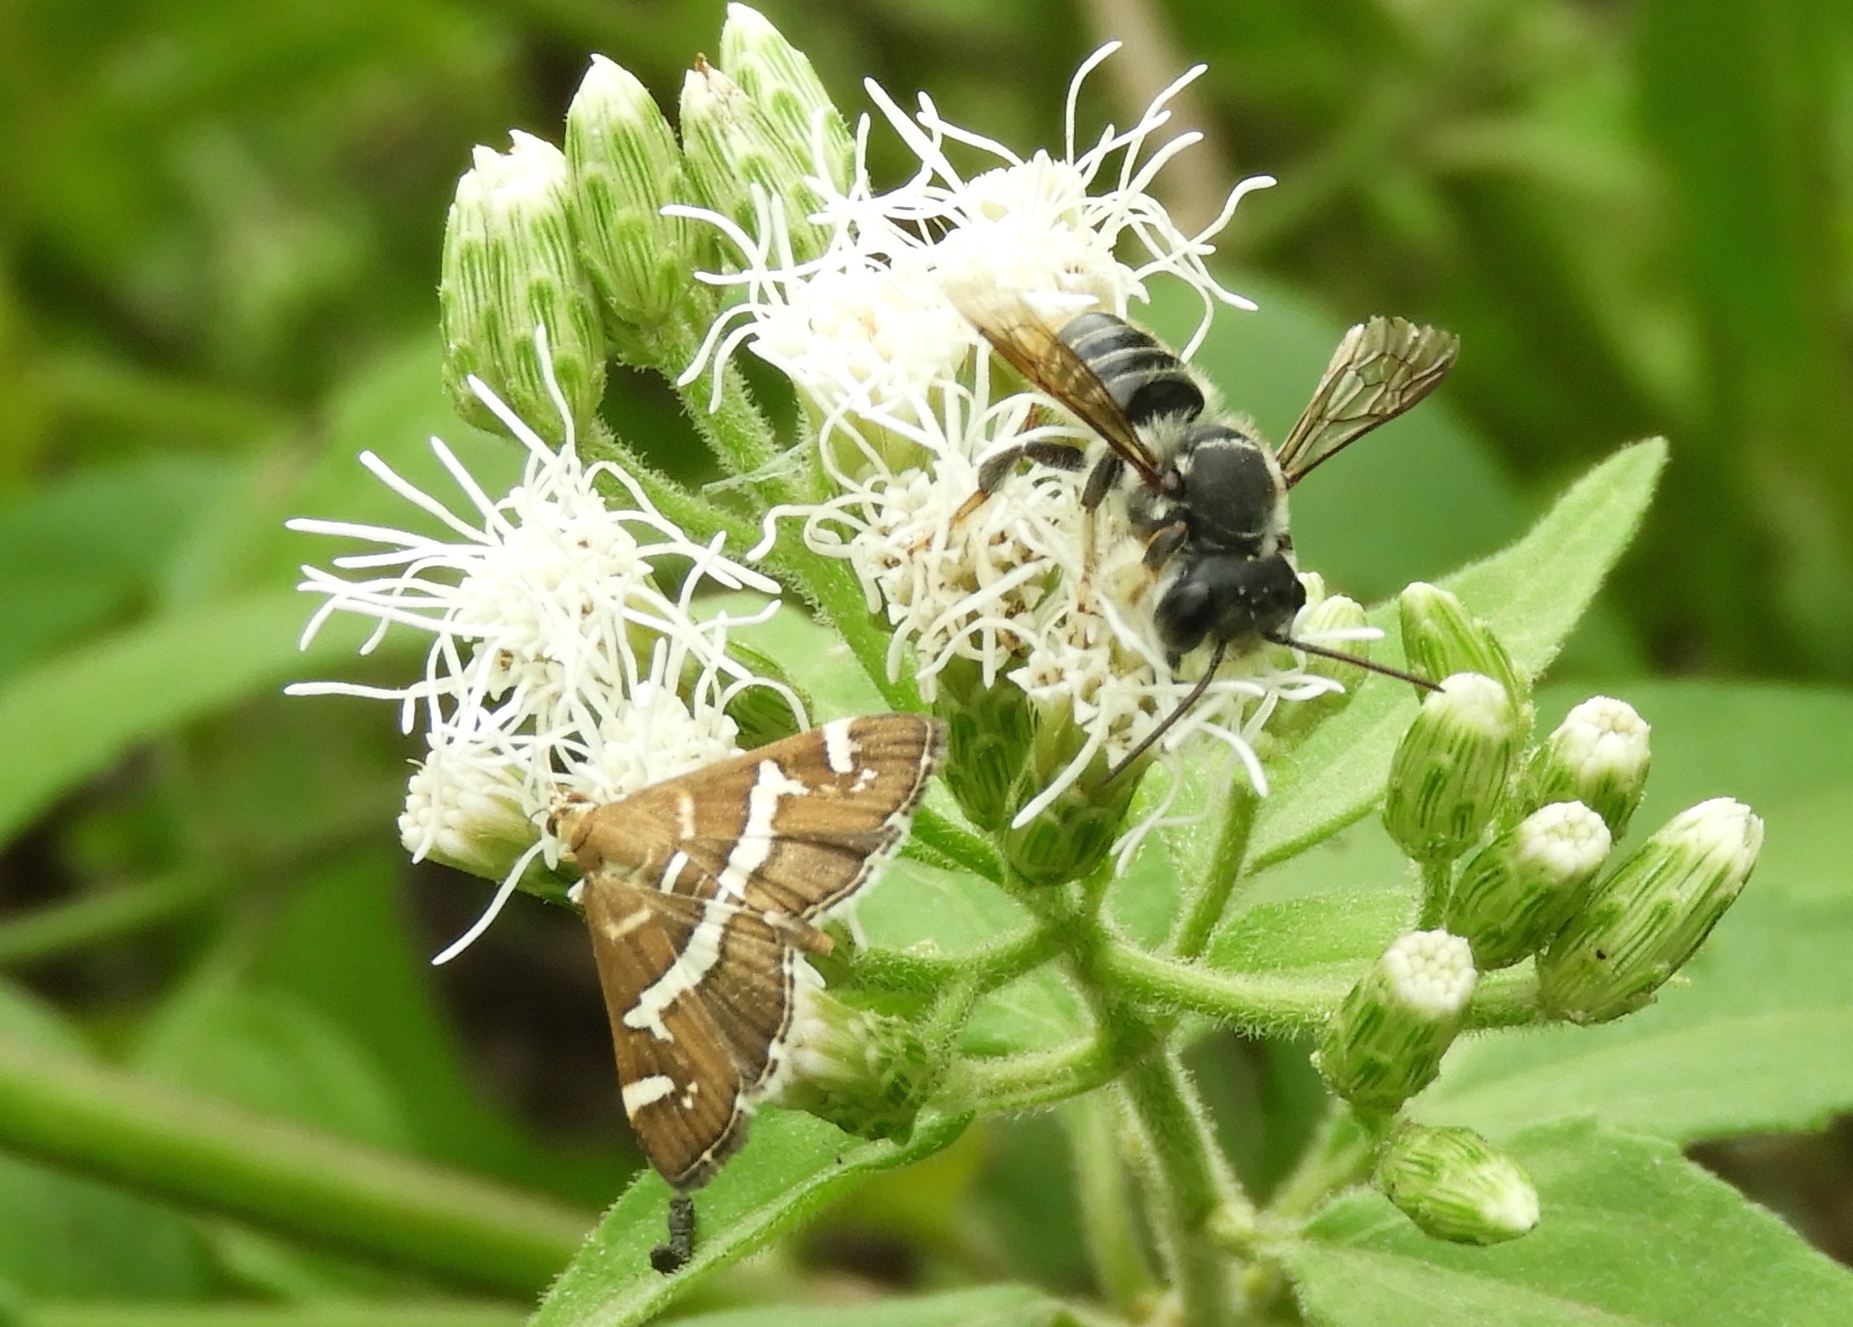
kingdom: Animalia
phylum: Arthropoda
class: Insecta
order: Lepidoptera
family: Crambidae
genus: Spoladea
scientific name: Spoladea recurvalis
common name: Beet webworm moth
